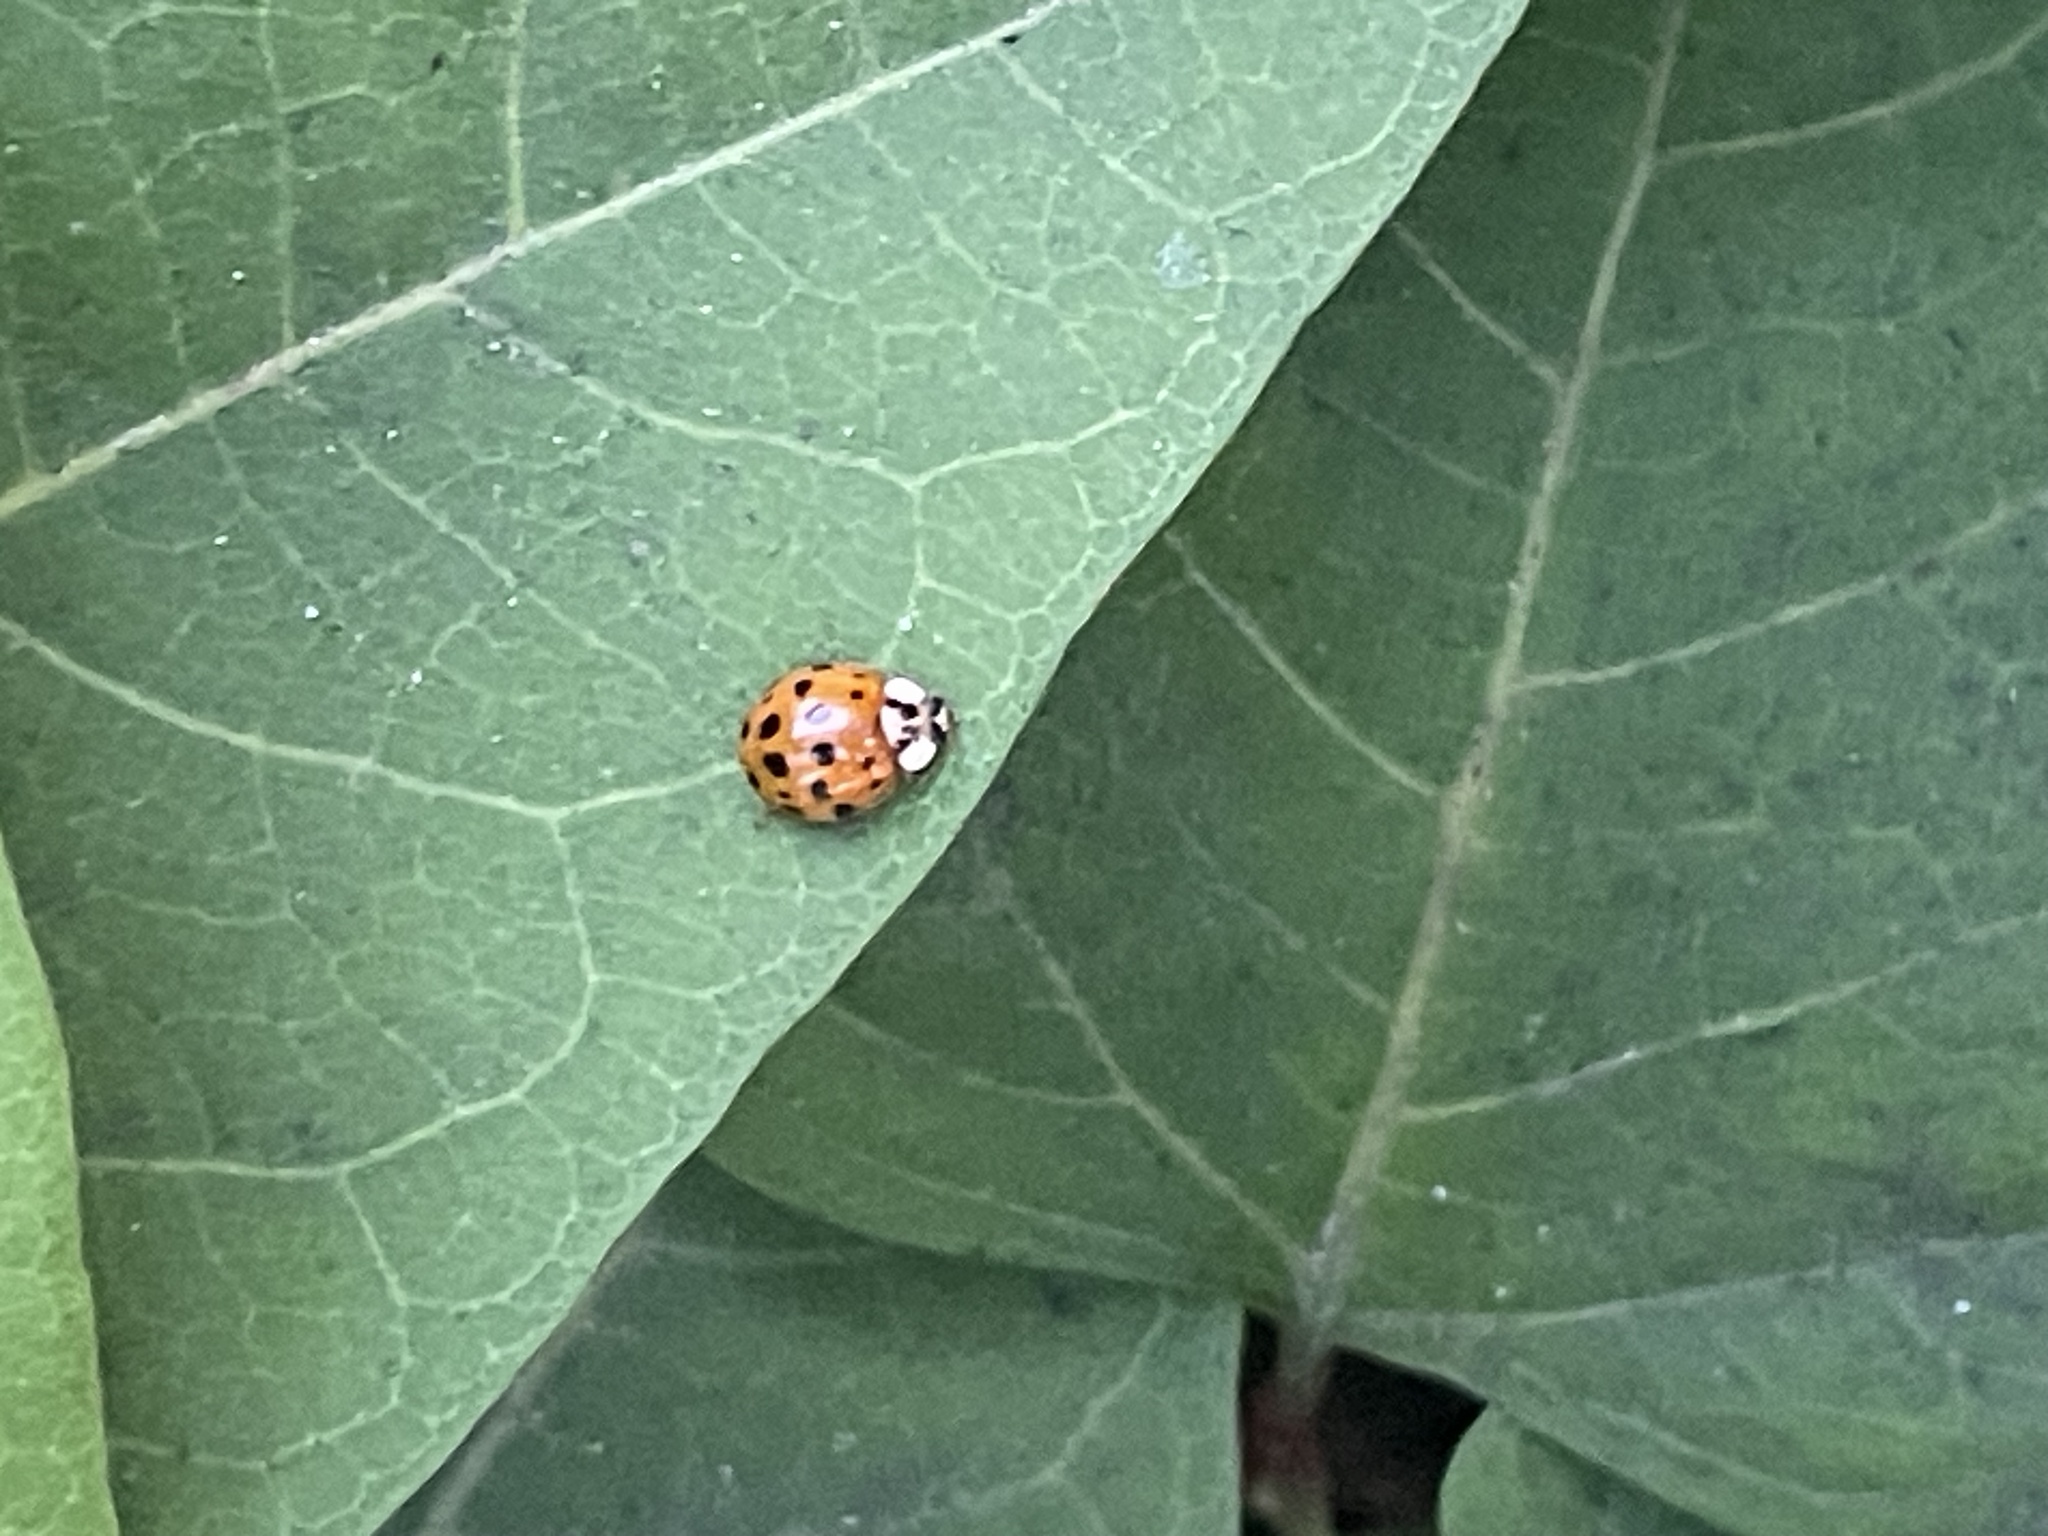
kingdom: Animalia
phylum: Arthropoda
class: Insecta
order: Coleoptera
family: Coccinellidae
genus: Harmonia
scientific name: Harmonia axyridis
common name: Harlequin ladybird
